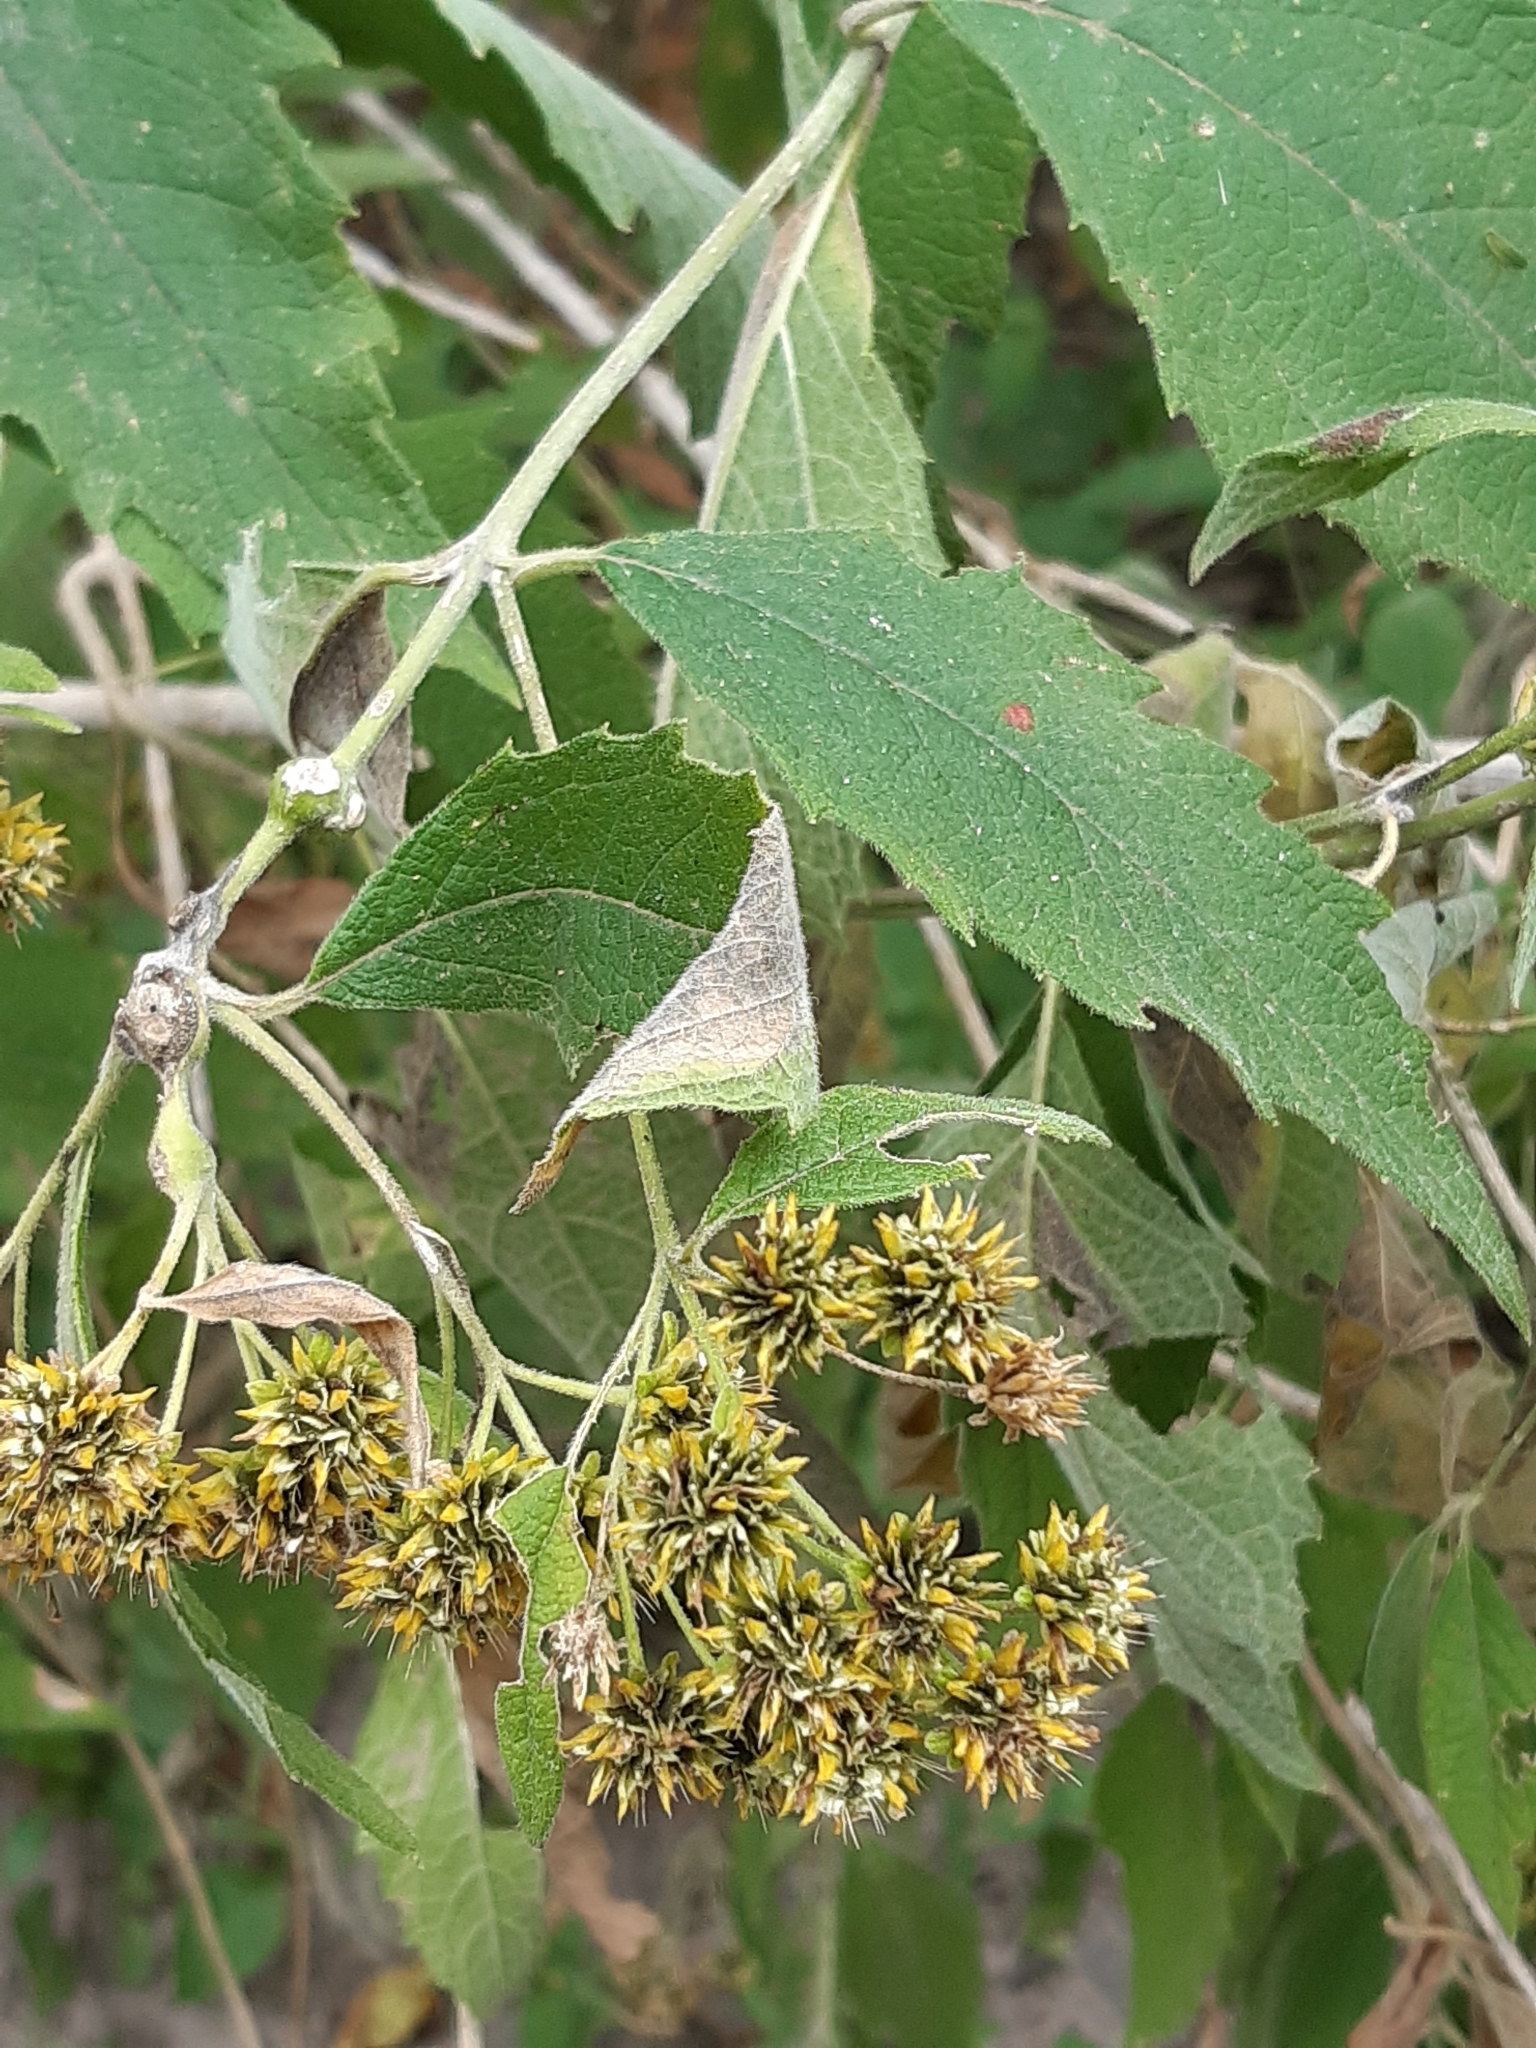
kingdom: Plantae
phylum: Tracheophyta
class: Magnoliopsida
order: Asterales
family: Asteraceae
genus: Verbesina
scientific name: Verbesina serrata
